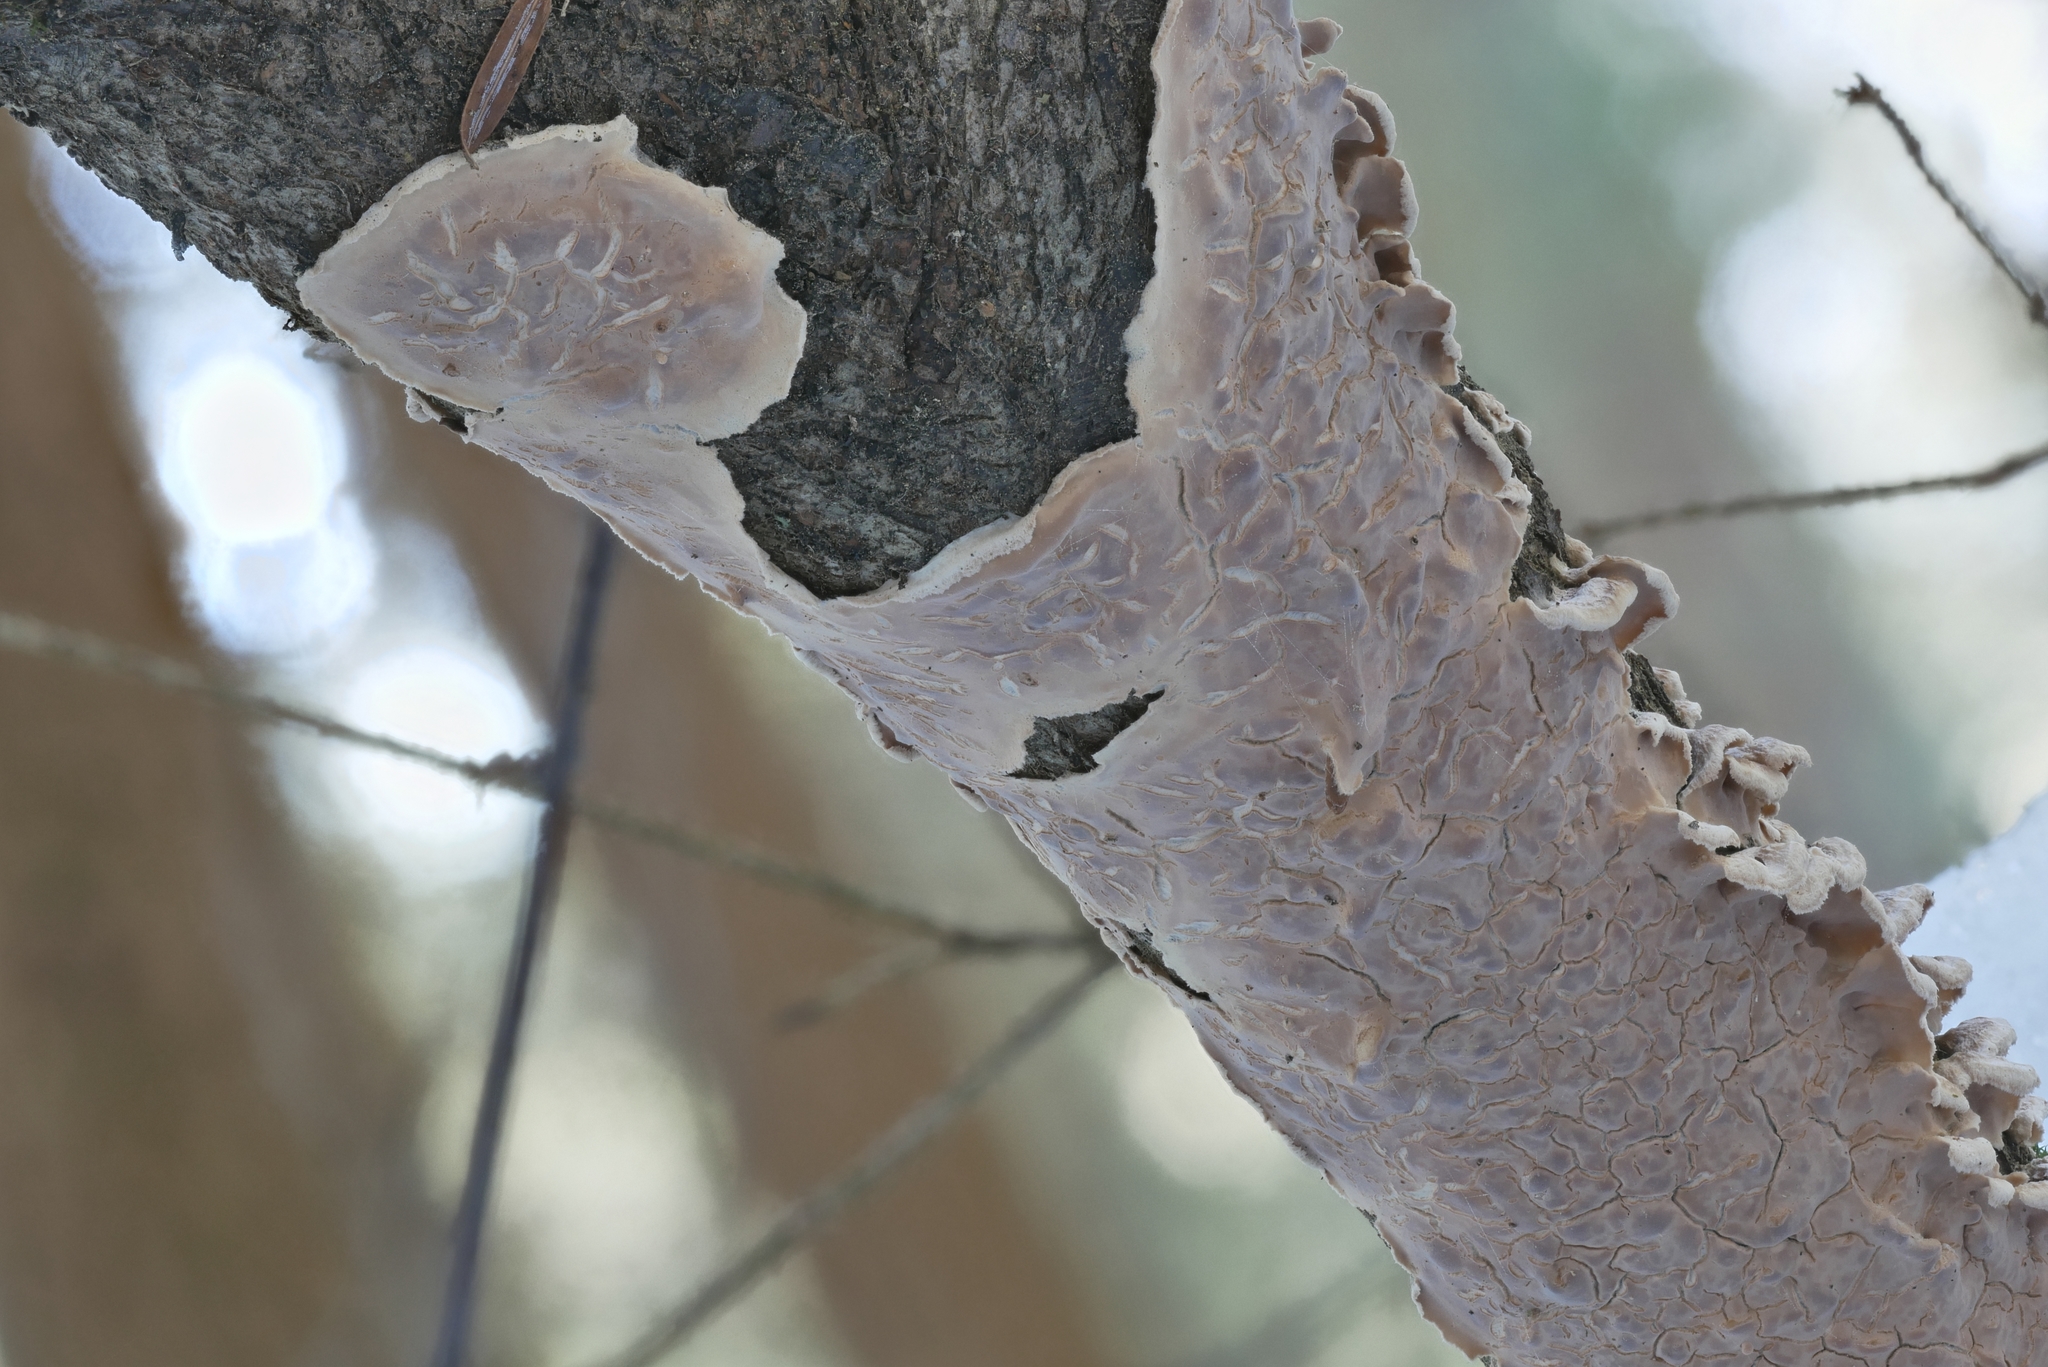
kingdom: Fungi
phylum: Basidiomycota
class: Agaricomycetes
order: Agaricales
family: Physalacriaceae
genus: Cylindrobasidium
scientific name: Cylindrobasidium laeve
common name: Tear dropper
